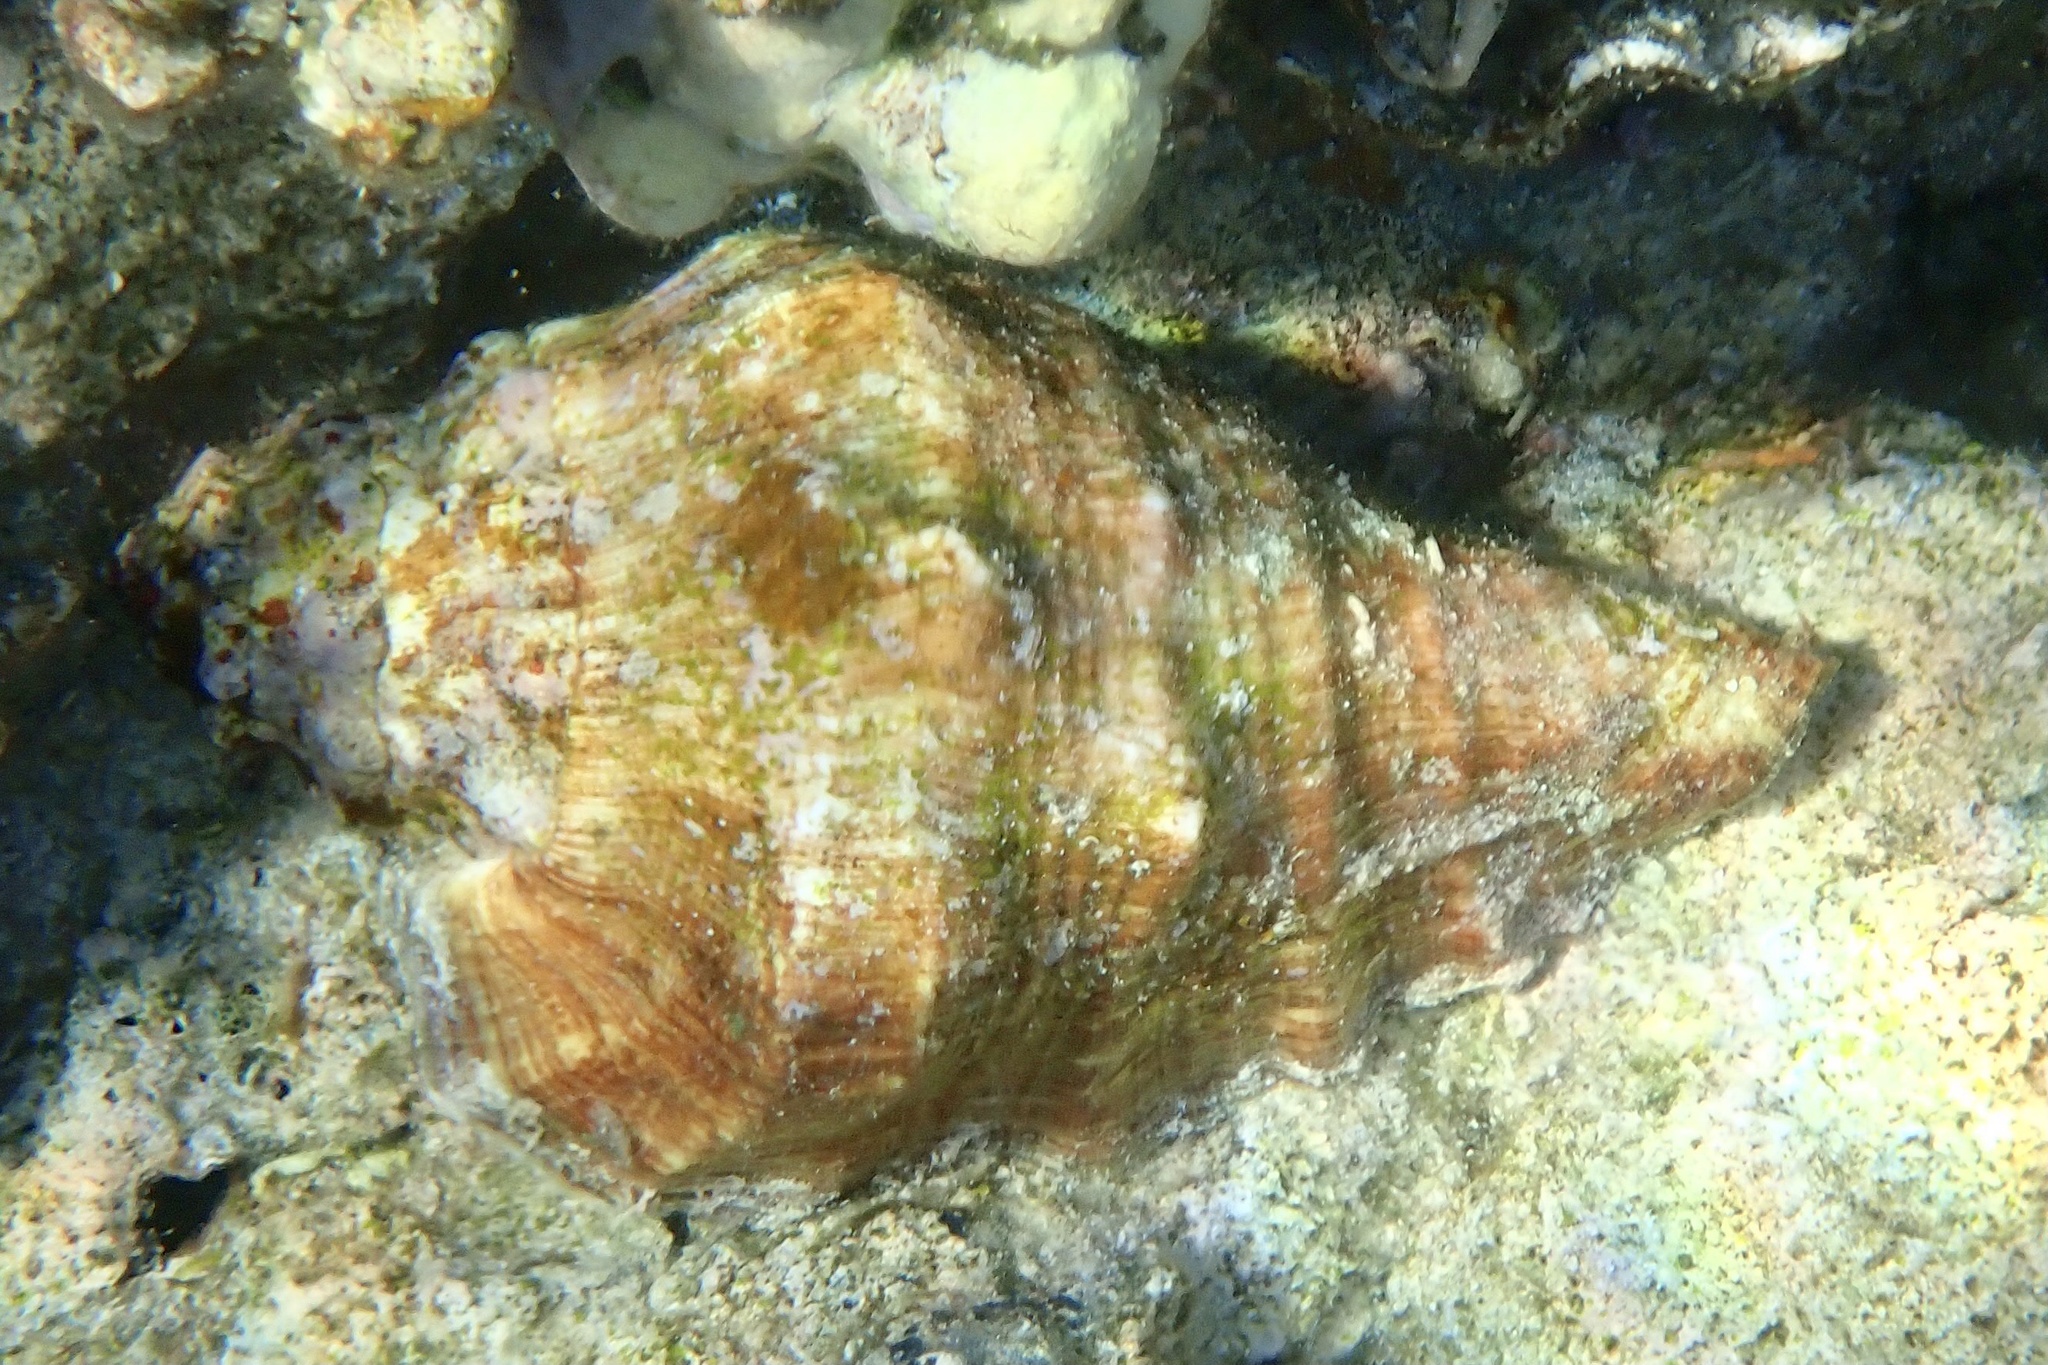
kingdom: Animalia
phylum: Mollusca
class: Gastropoda
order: Littorinimorpha
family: Strombidae
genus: Lambis
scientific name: Lambis truncata
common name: Giant spider conch
